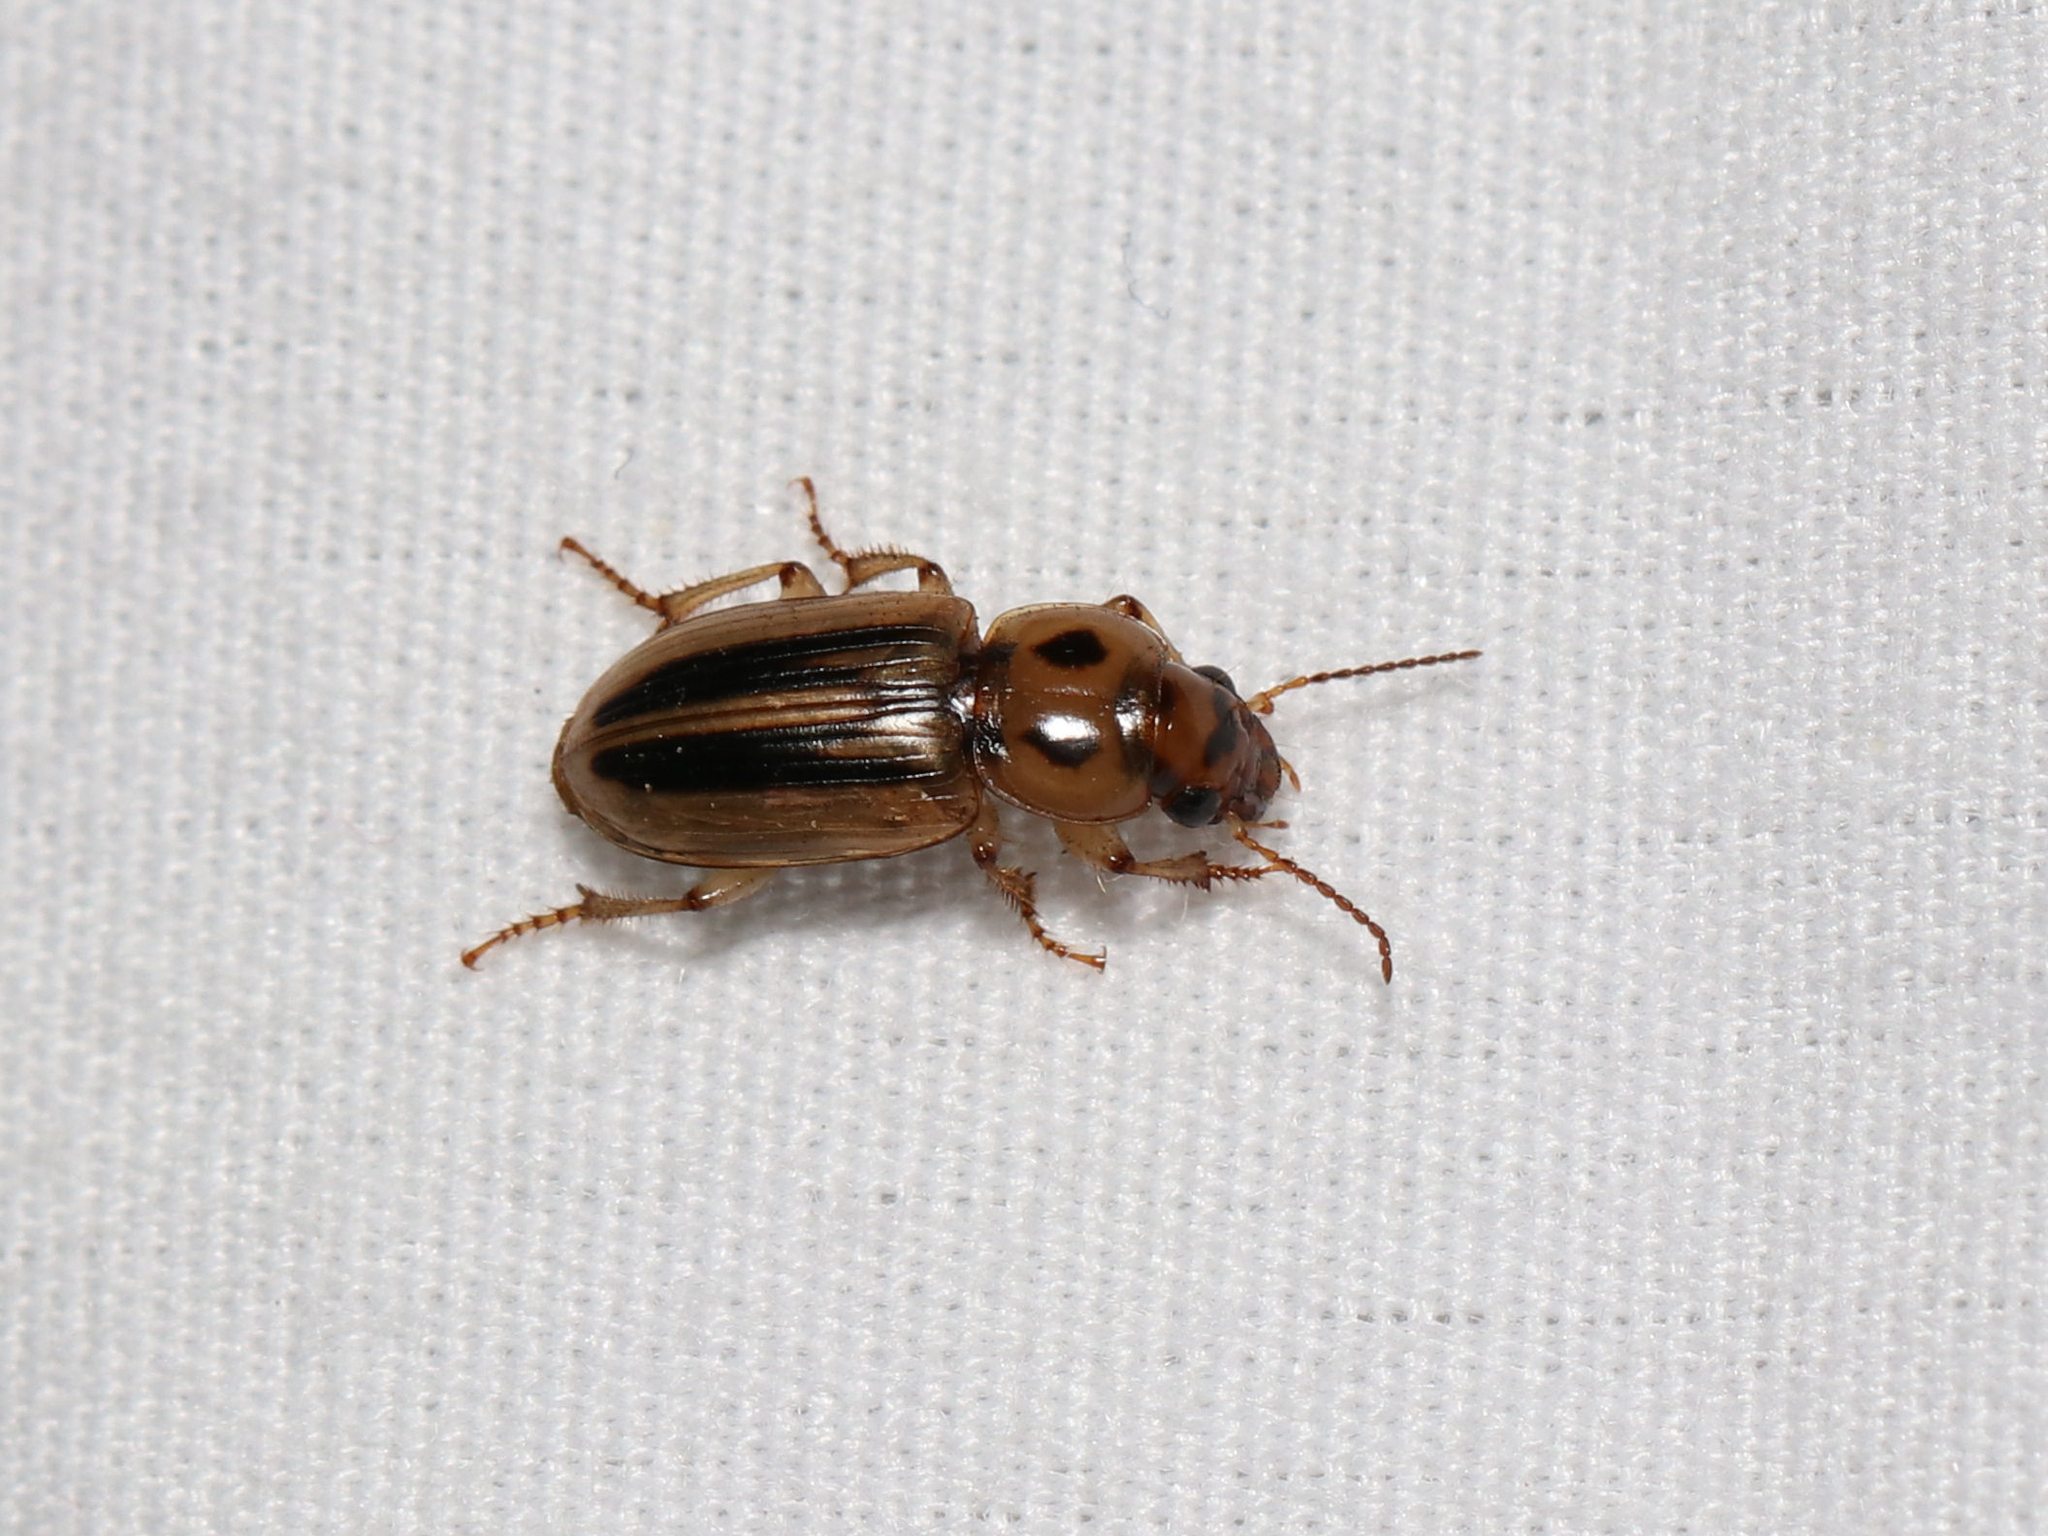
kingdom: Animalia
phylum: Arthropoda
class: Insecta
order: Coleoptera
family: Carabidae
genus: Stenolophus
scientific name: Stenolophus lineola
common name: Lined stenolophus
